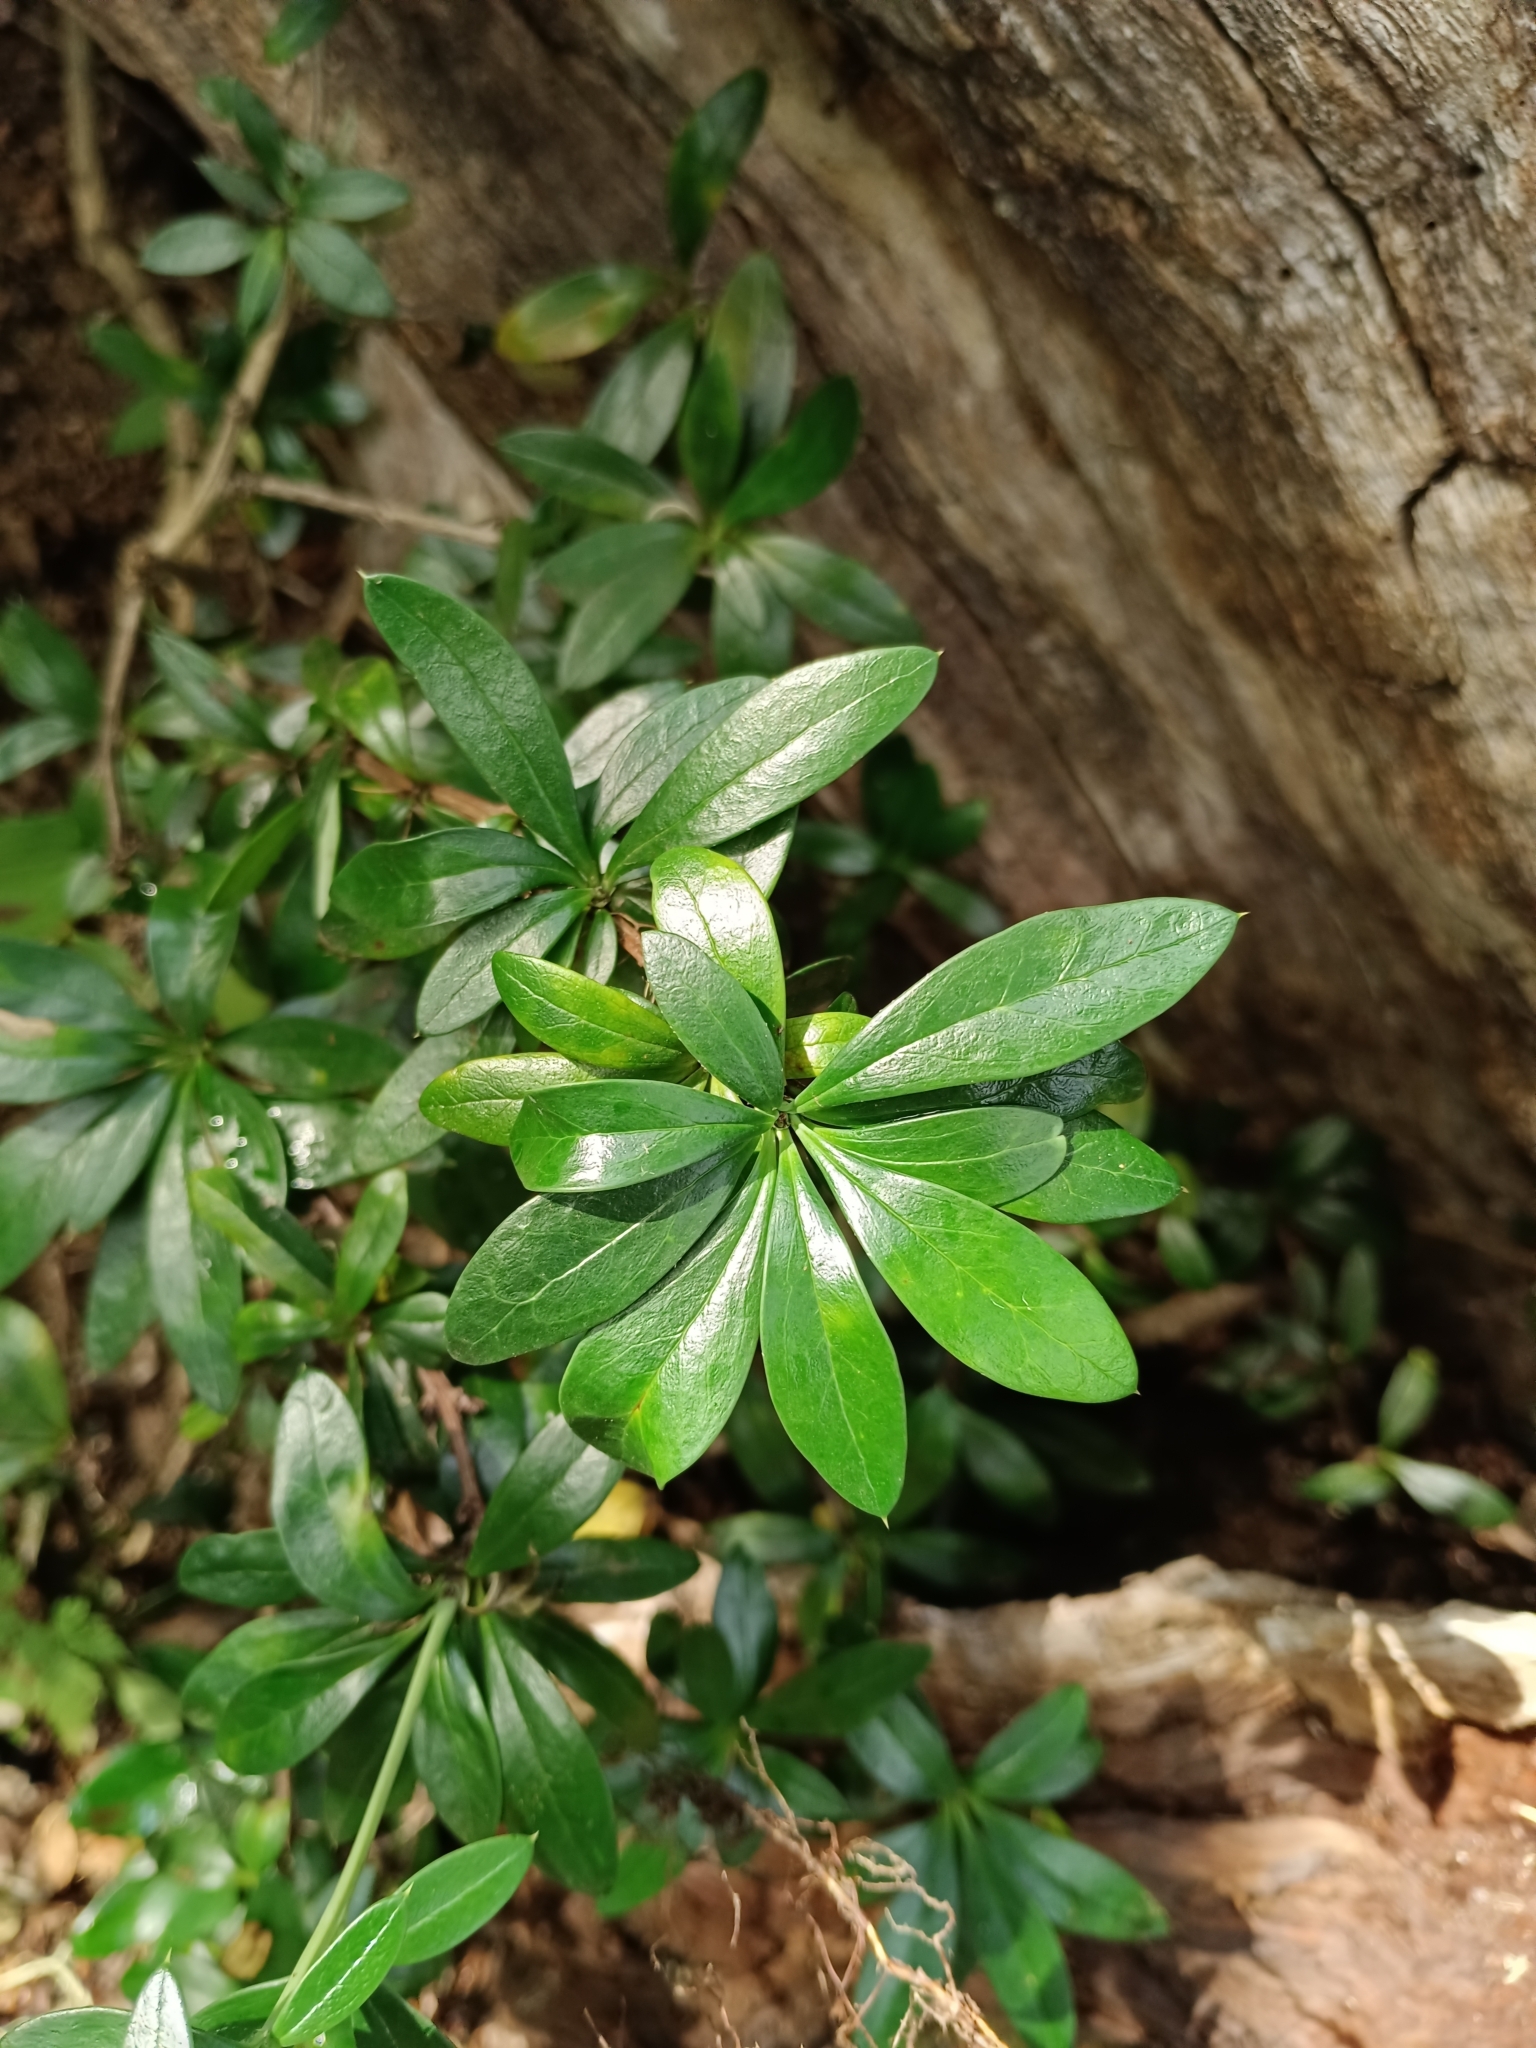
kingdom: Plantae
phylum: Tracheophyta
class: Magnoliopsida
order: Ranunculales
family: Berberidaceae
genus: Berberis
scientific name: Berberis valdiviana
